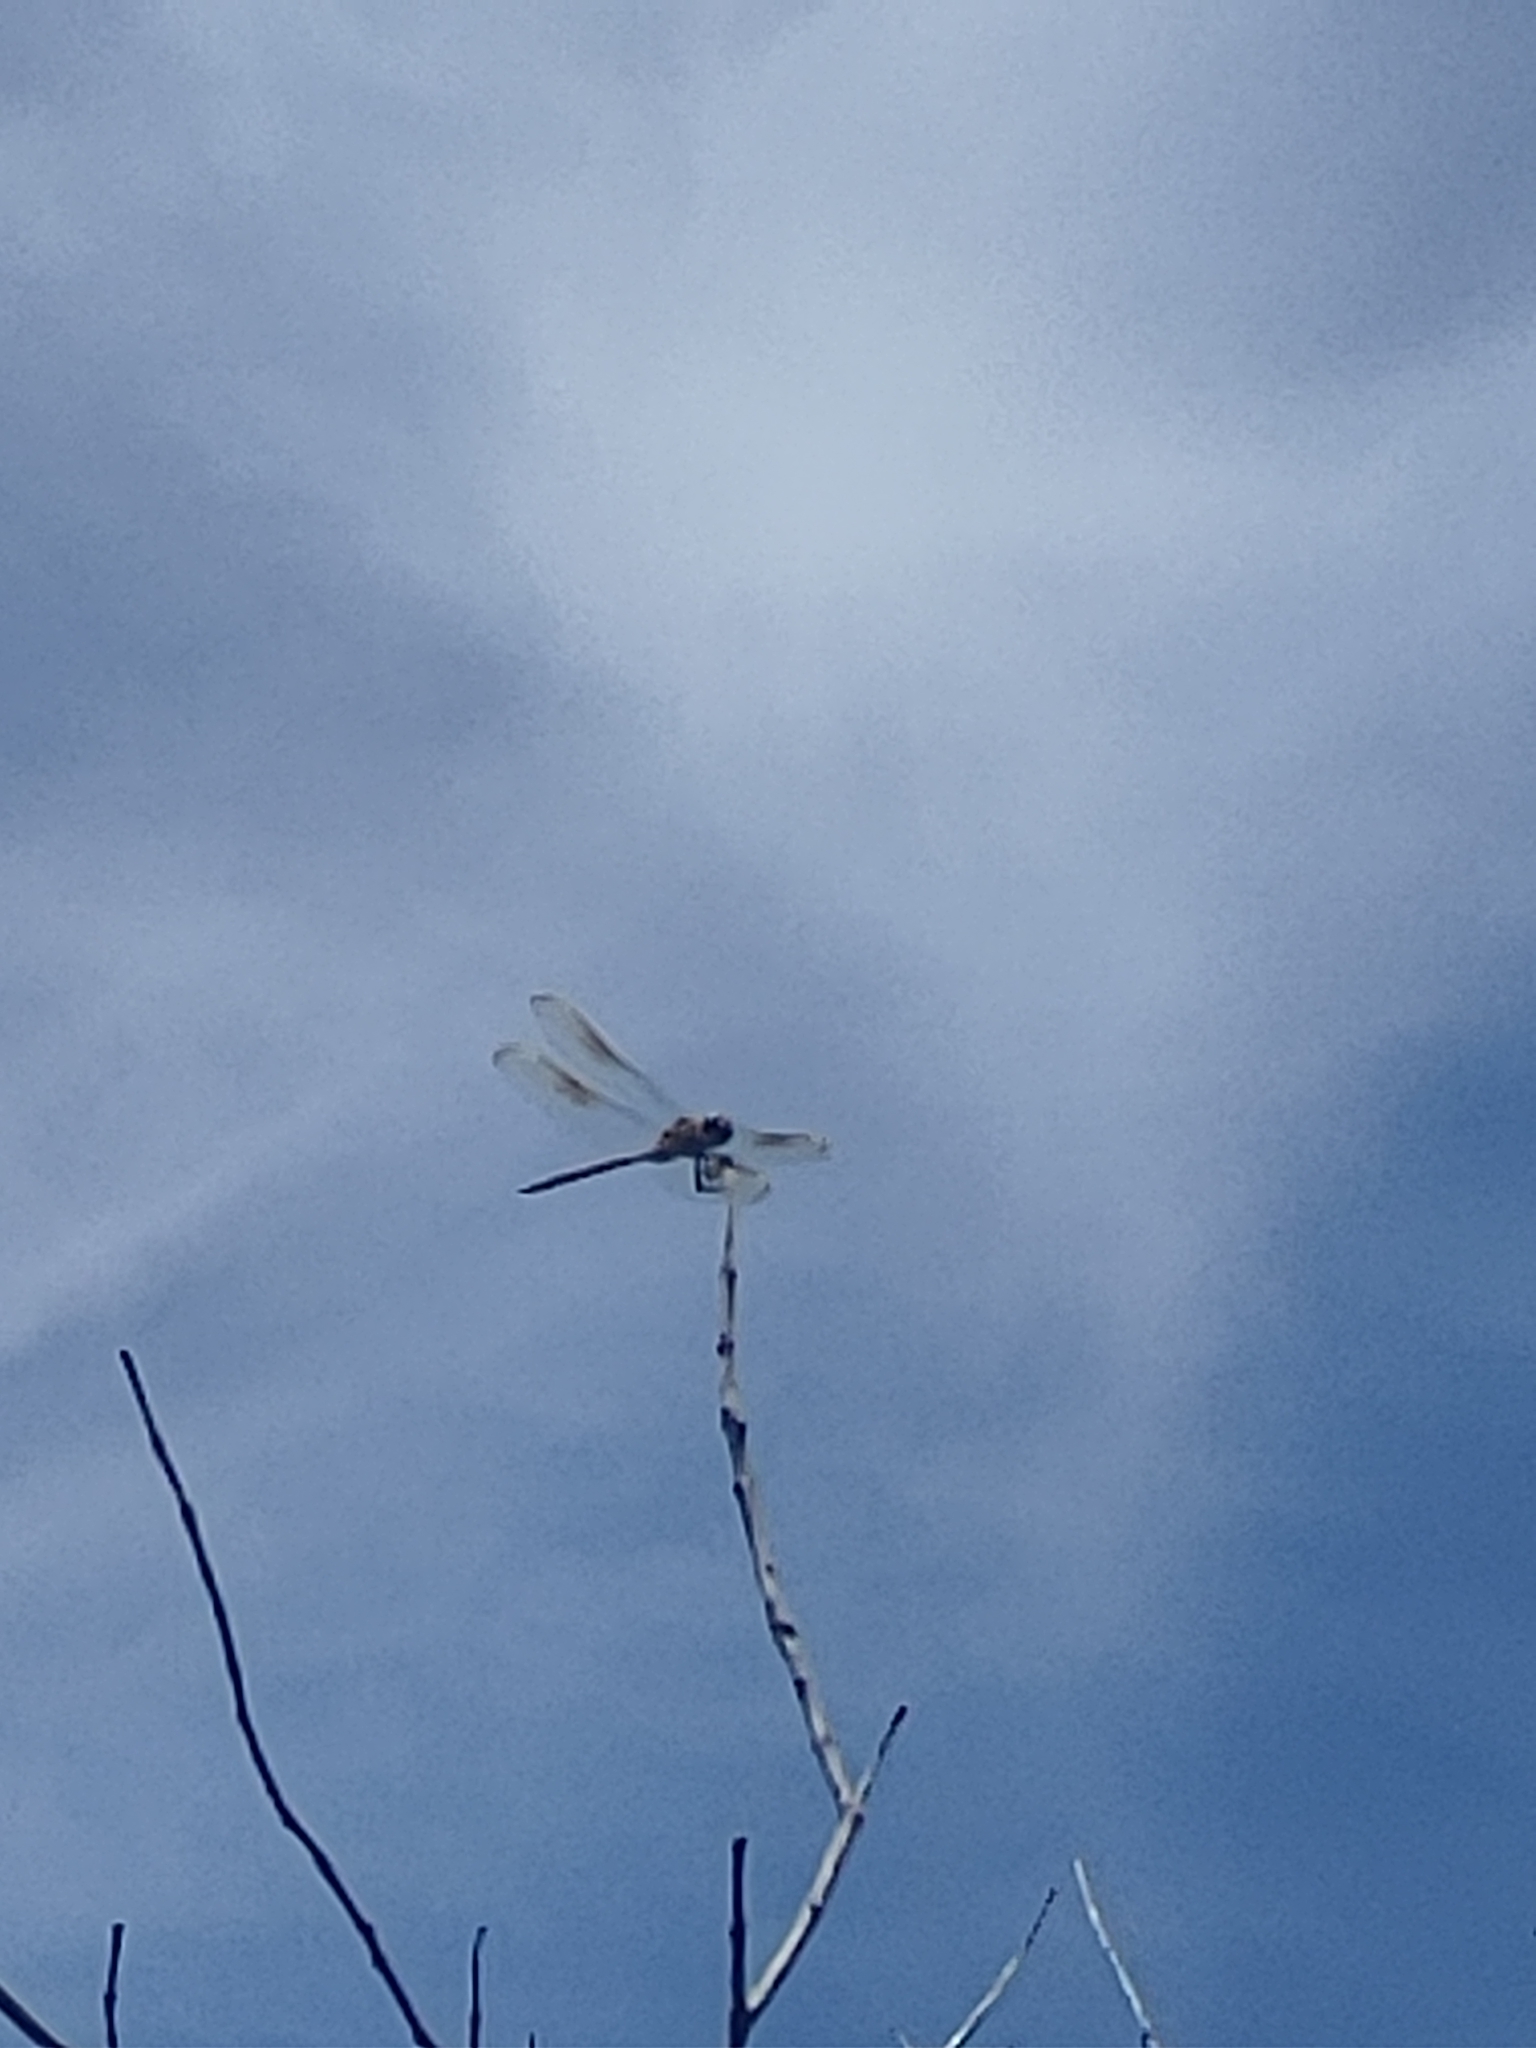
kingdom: Animalia
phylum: Arthropoda
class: Insecta
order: Odonata
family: Libellulidae
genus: Brachymesia
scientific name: Brachymesia gravida
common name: Four-spotted pennant
